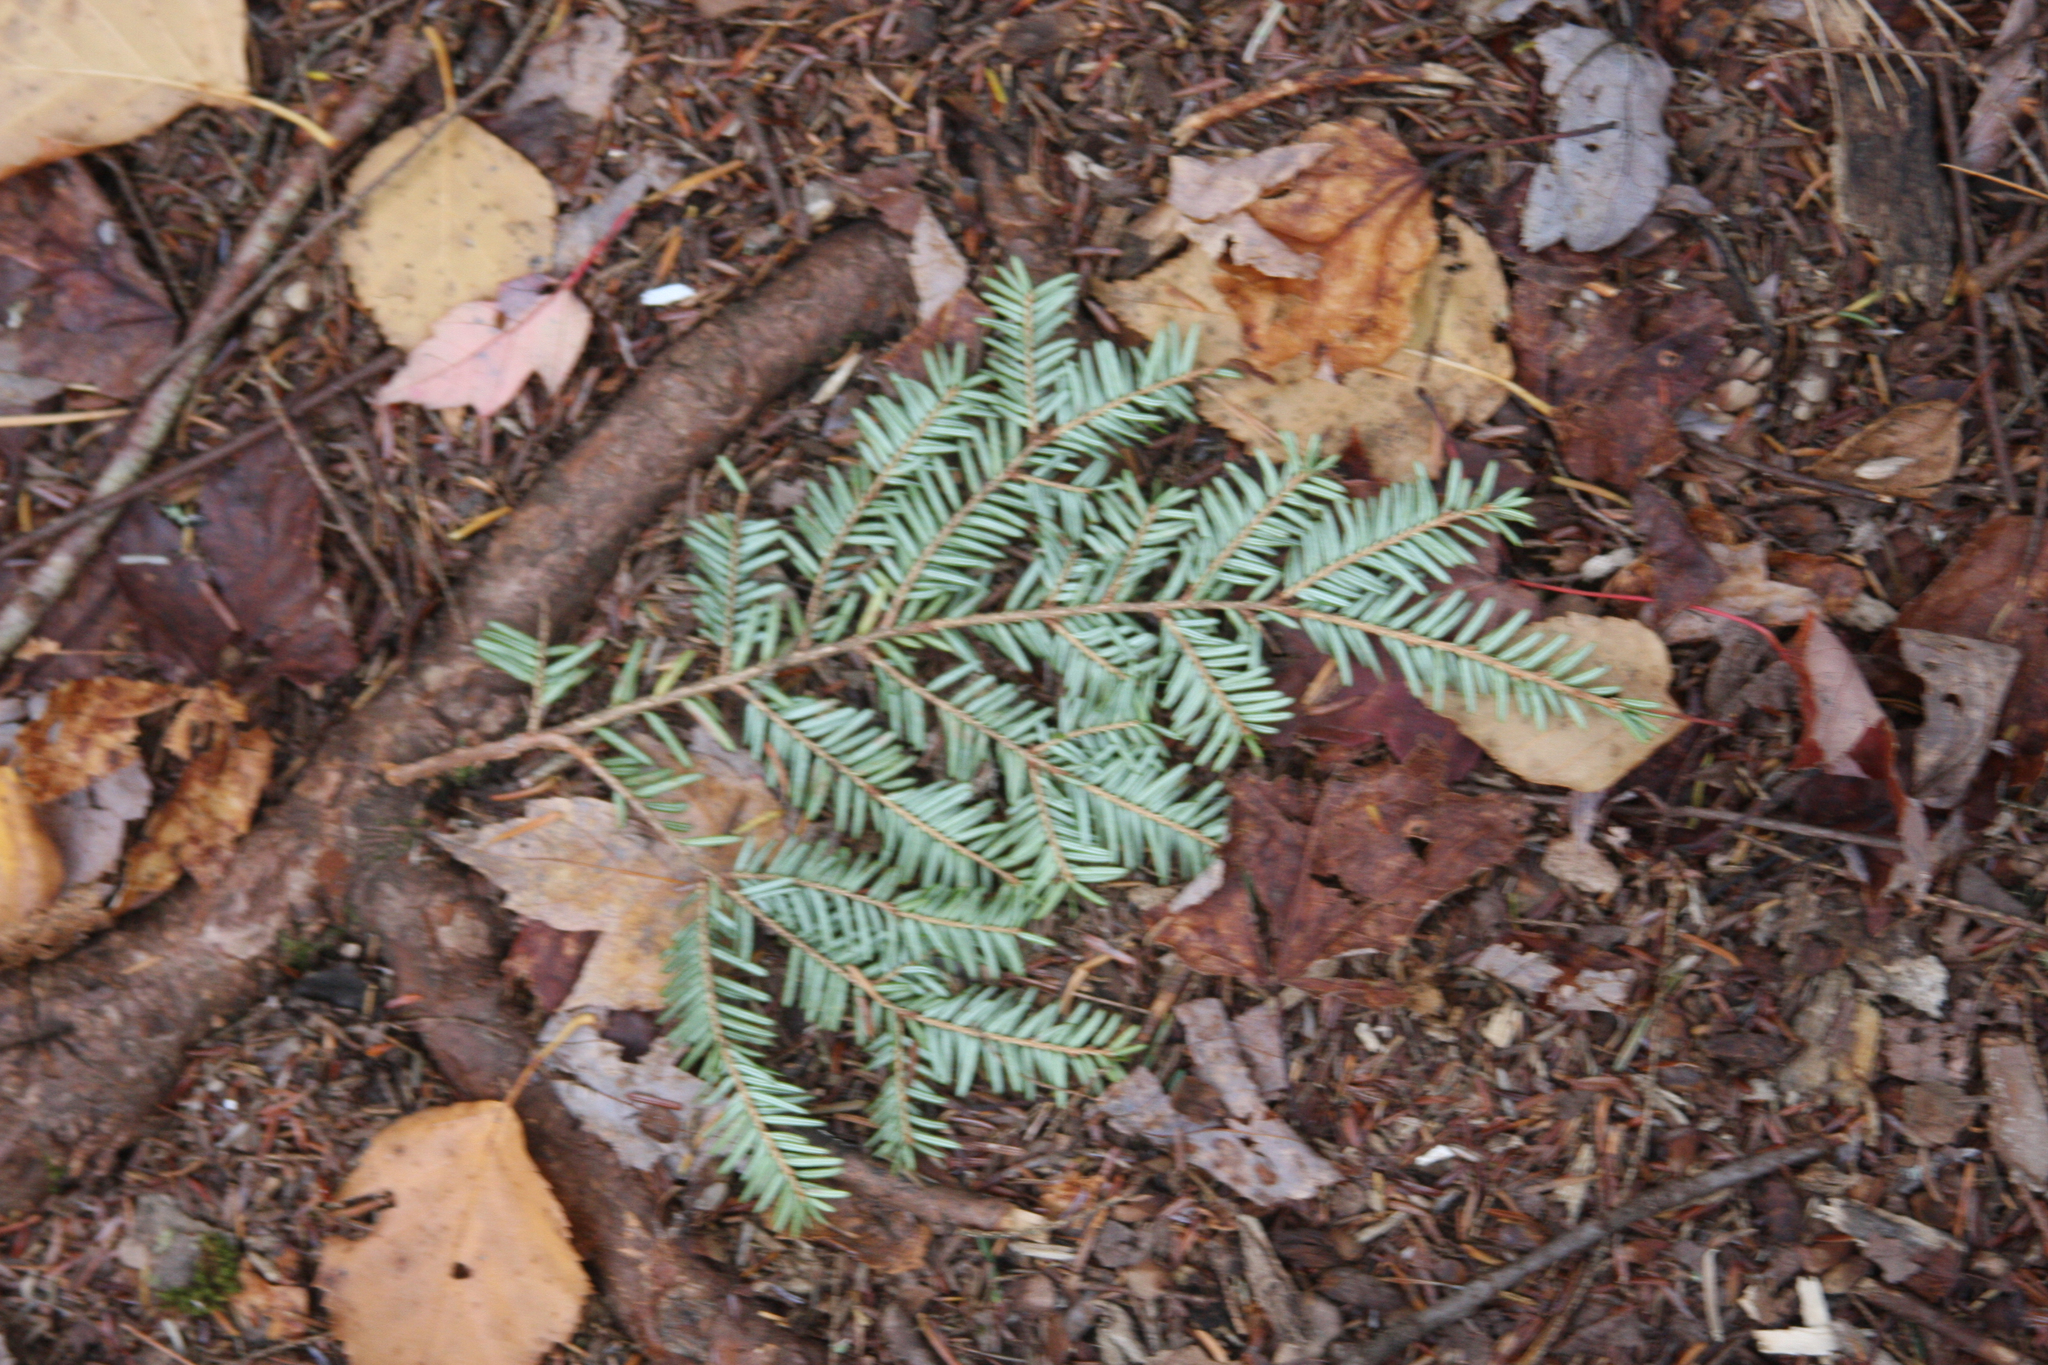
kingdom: Plantae
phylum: Tracheophyta
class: Pinopsida
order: Pinales
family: Pinaceae
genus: Tsuga
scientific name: Tsuga canadensis
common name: Eastern hemlock
